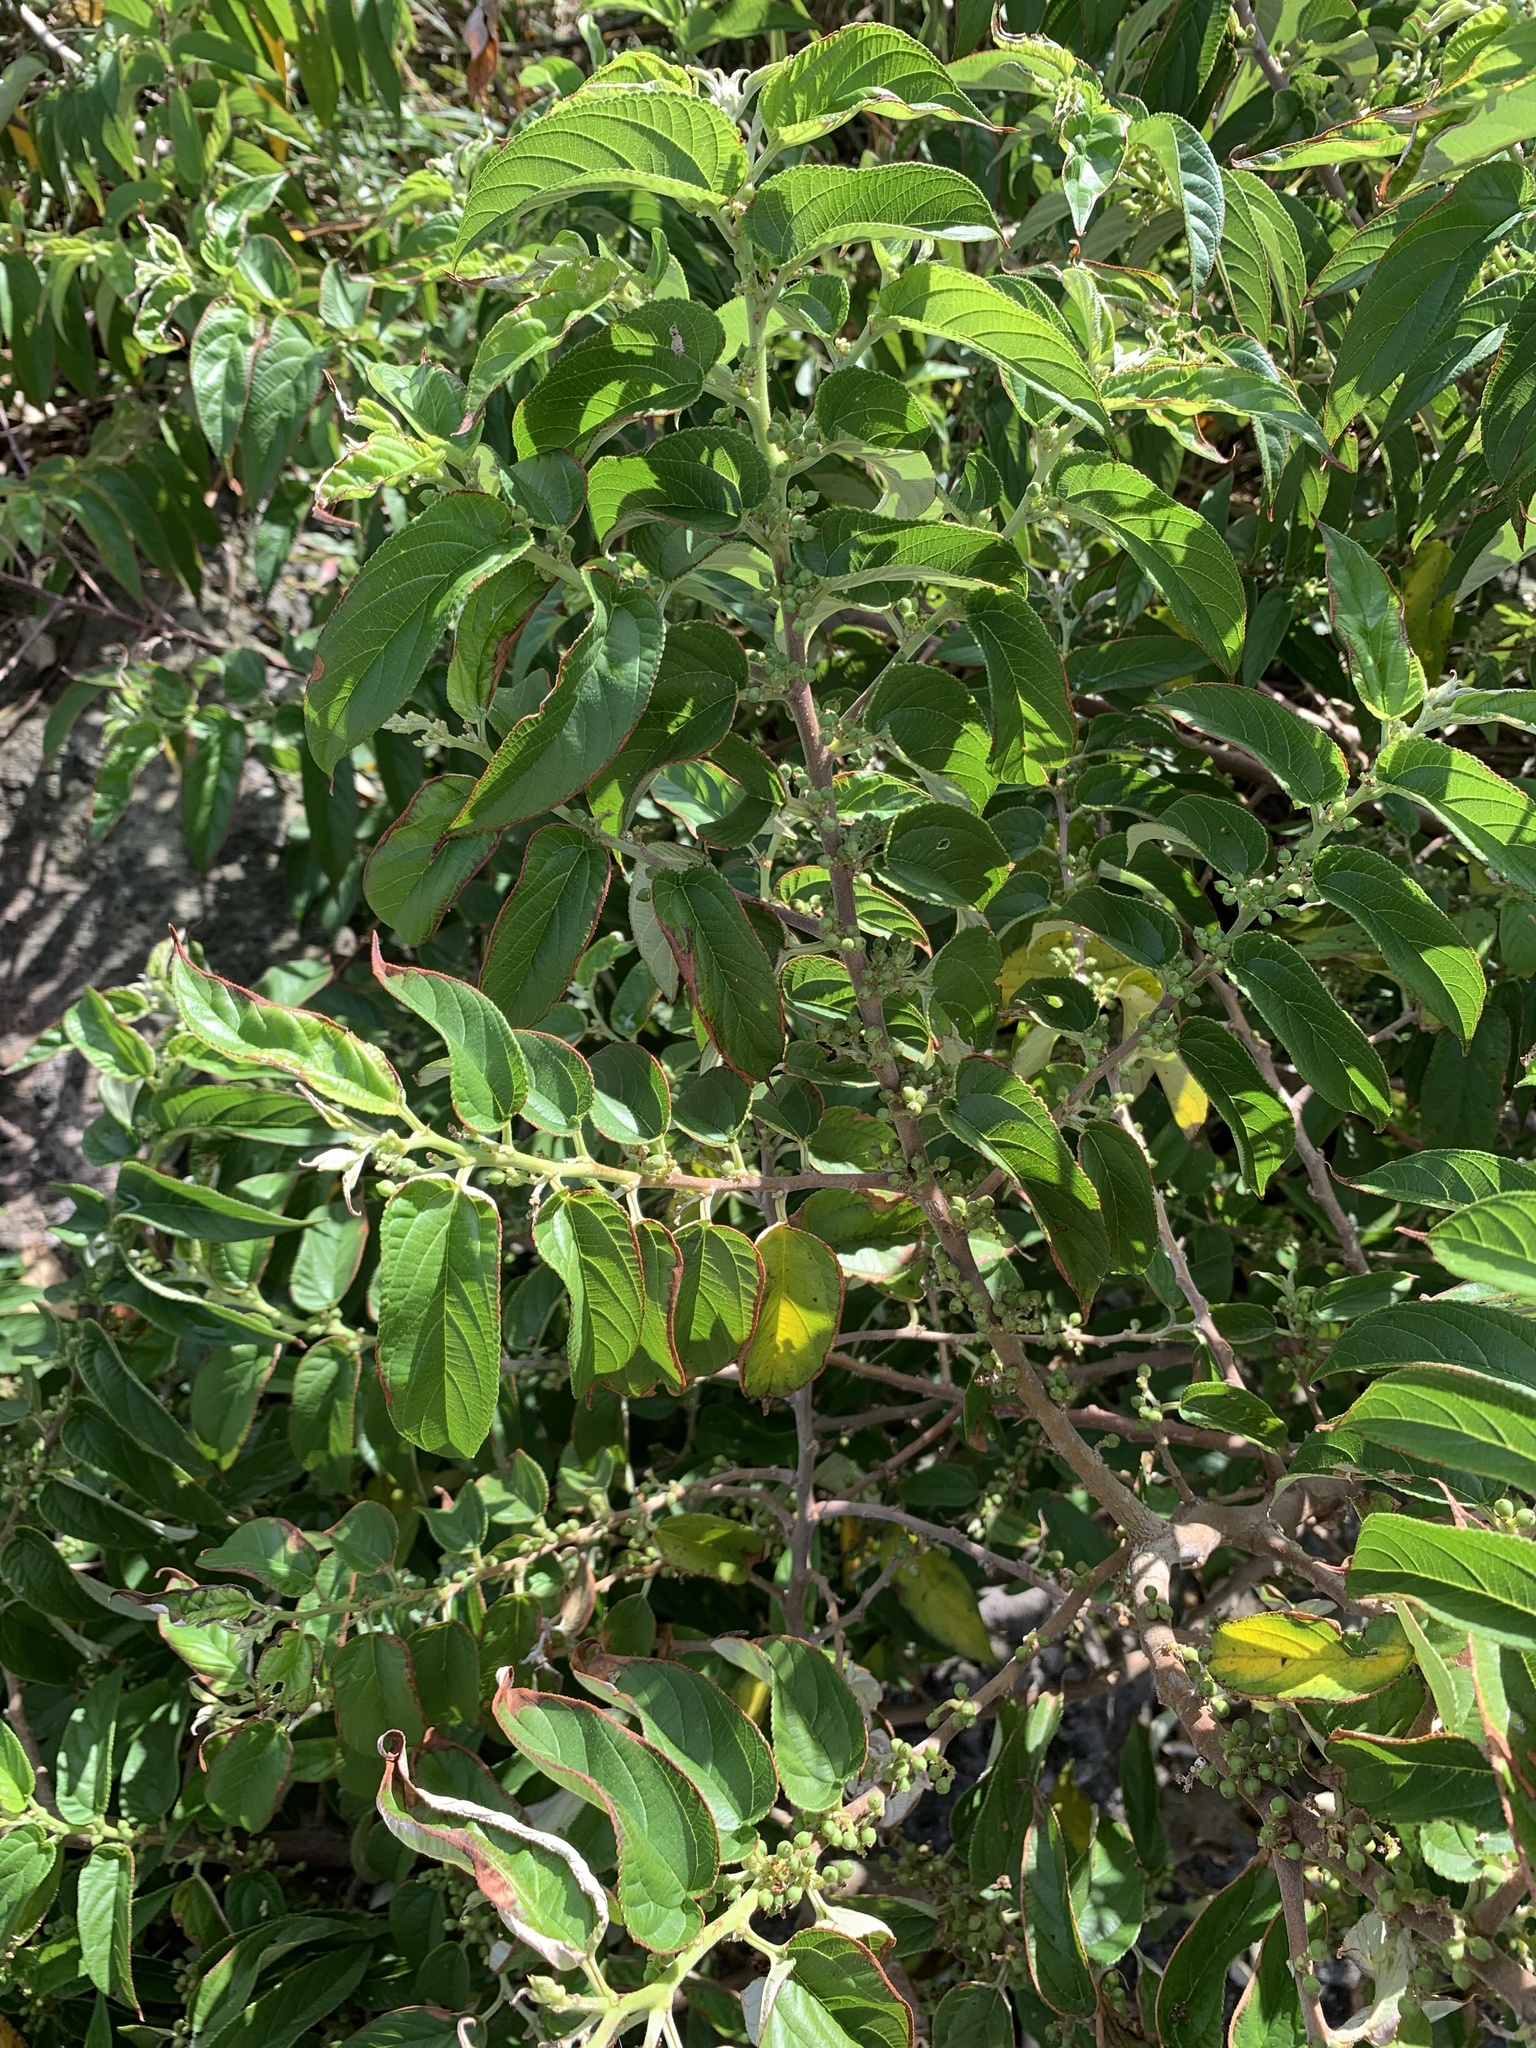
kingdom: Plantae
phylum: Tracheophyta
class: Magnoliopsida
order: Rosales
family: Cannabaceae
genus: Trema
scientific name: Trema orientale
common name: Indian charcoal tree
